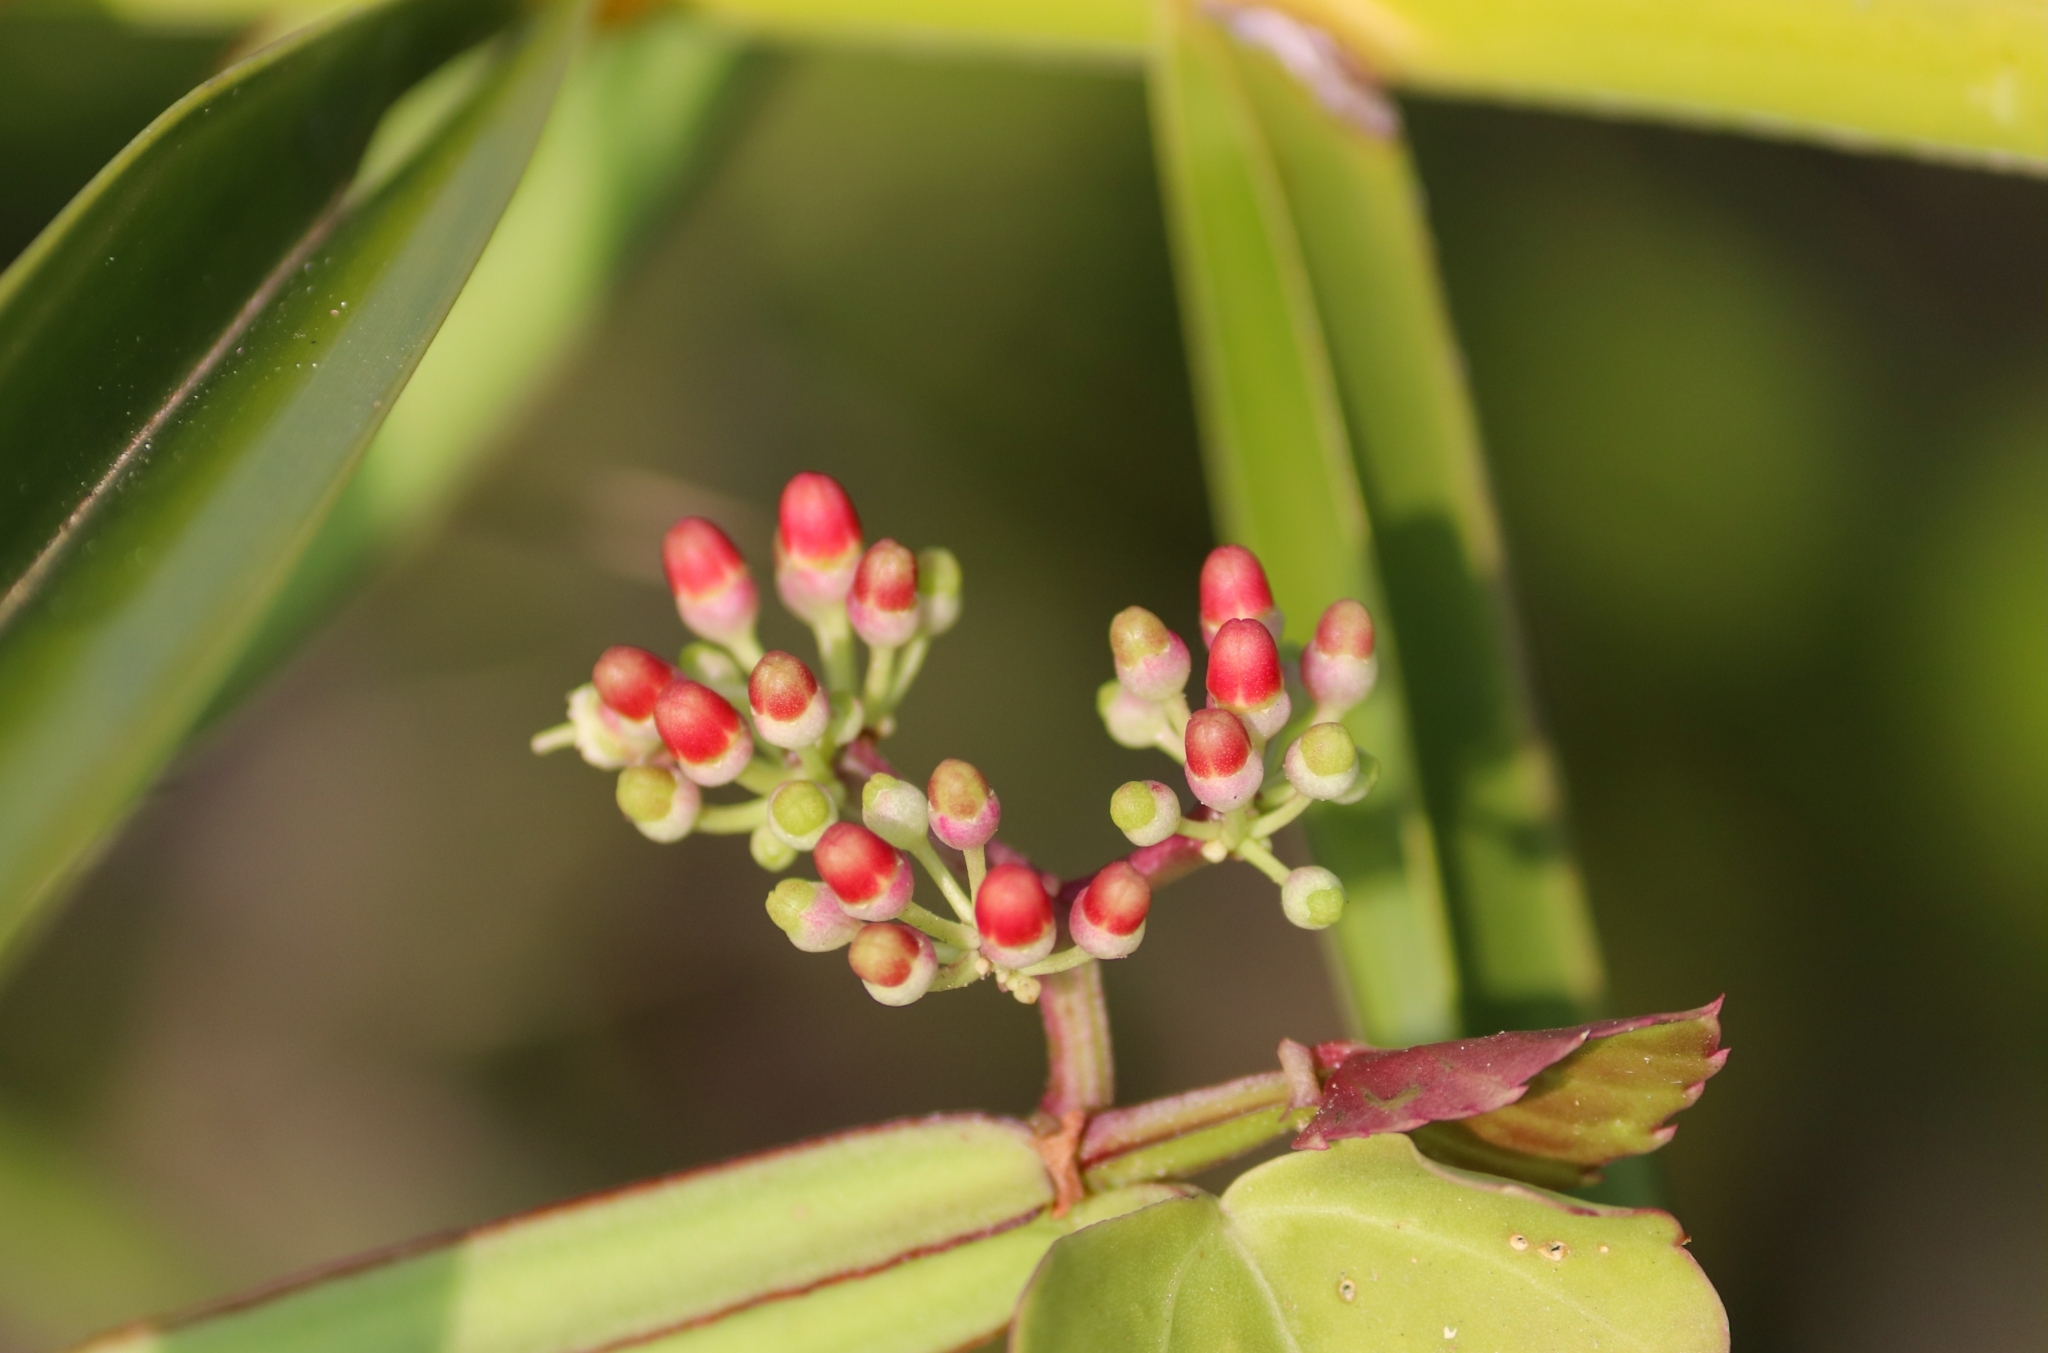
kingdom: Plantae
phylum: Tracheophyta
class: Magnoliopsida
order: Vitales
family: Vitaceae
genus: Cissus
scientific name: Cissus quadrangularis
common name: Veldt-grape
